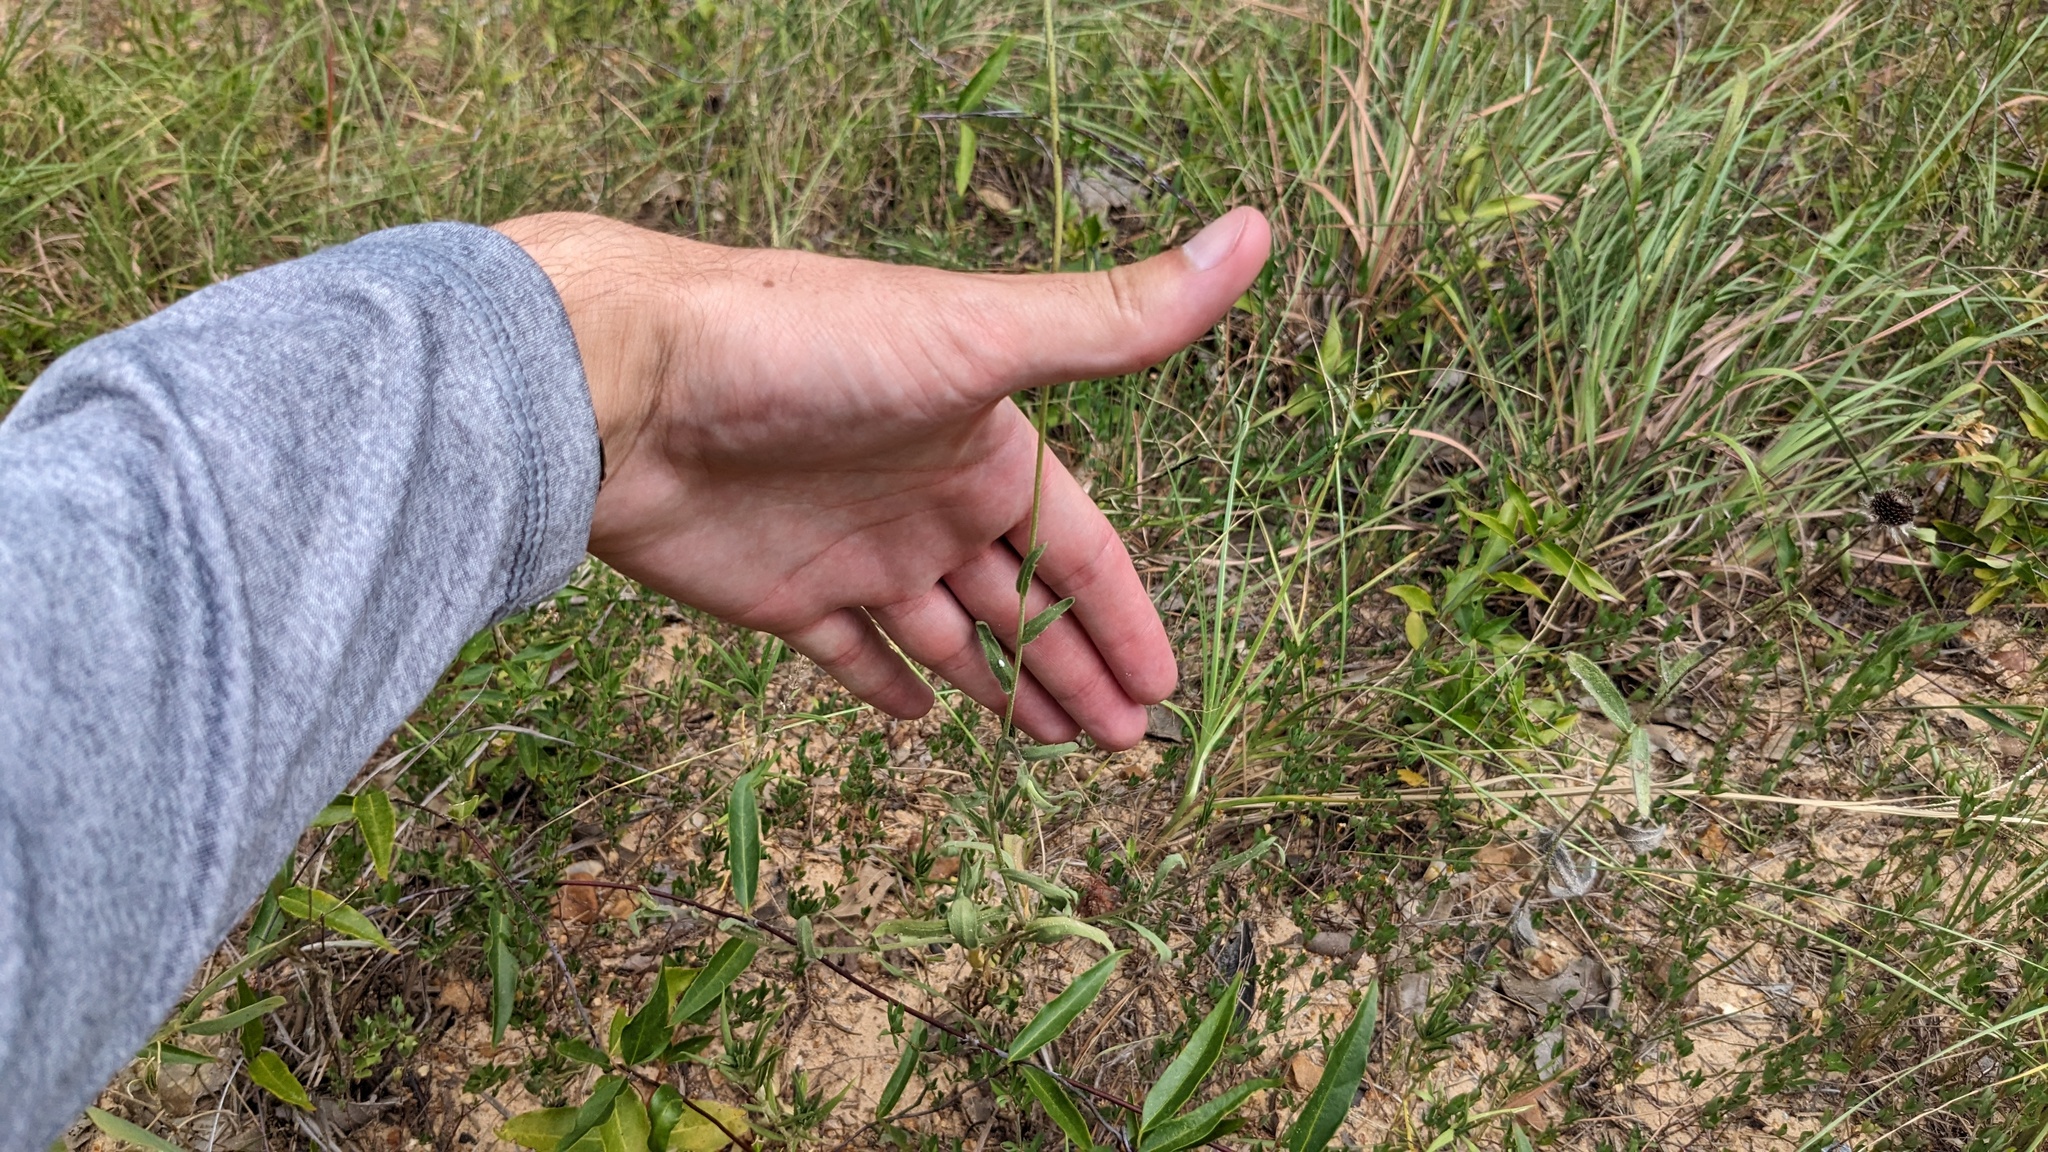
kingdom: Plantae
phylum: Tracheophyta
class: Magnoliopsida
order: Asterales
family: Asteraceae
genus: Gaillardia
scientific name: Gaillardia aestivalis
